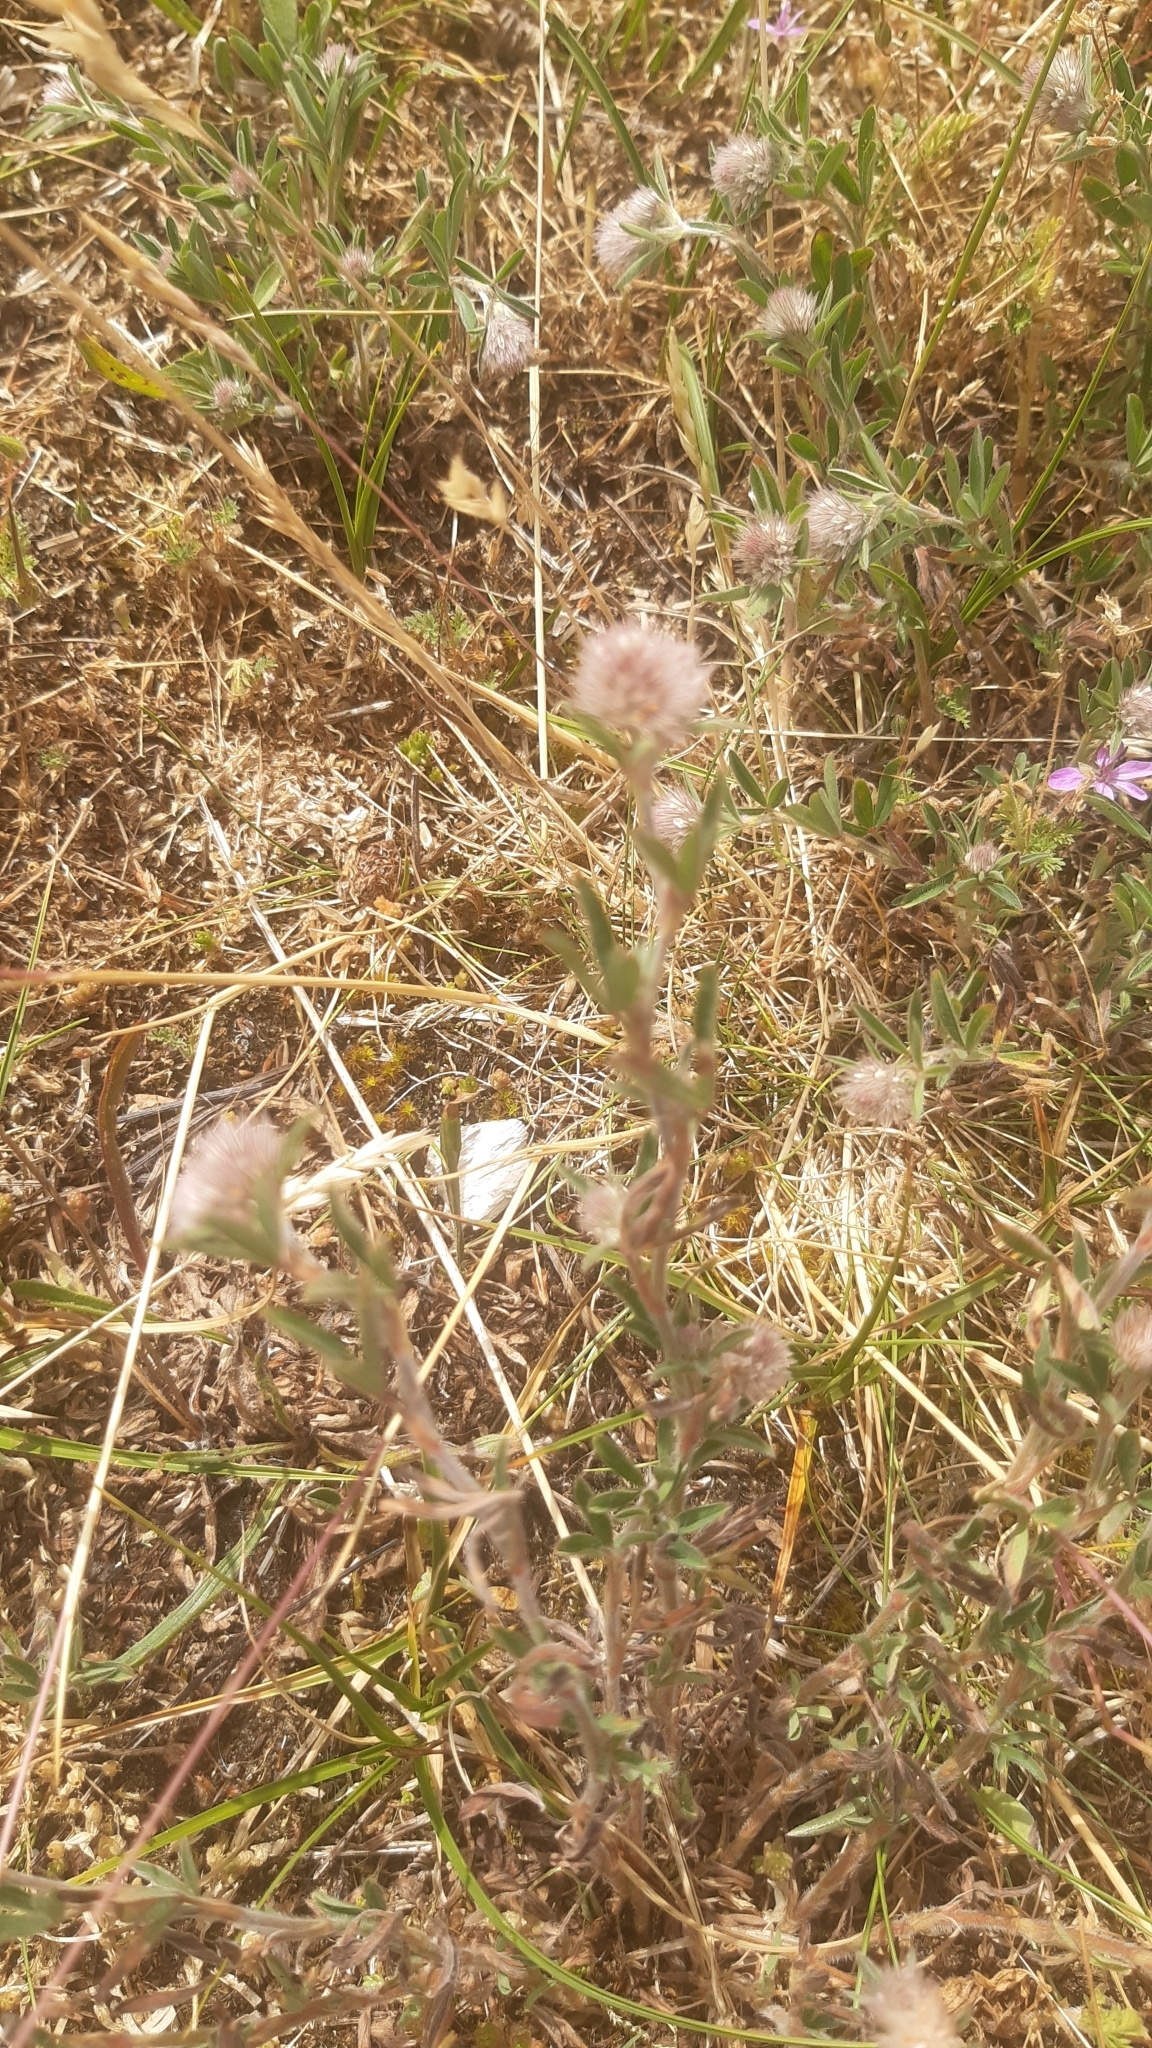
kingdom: Plantae
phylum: Tracheophyta
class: Magnoliopsida
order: Fabales
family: Fabaceae
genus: Trifolium
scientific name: Trifolium arvense
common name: Hare's-foot clover
